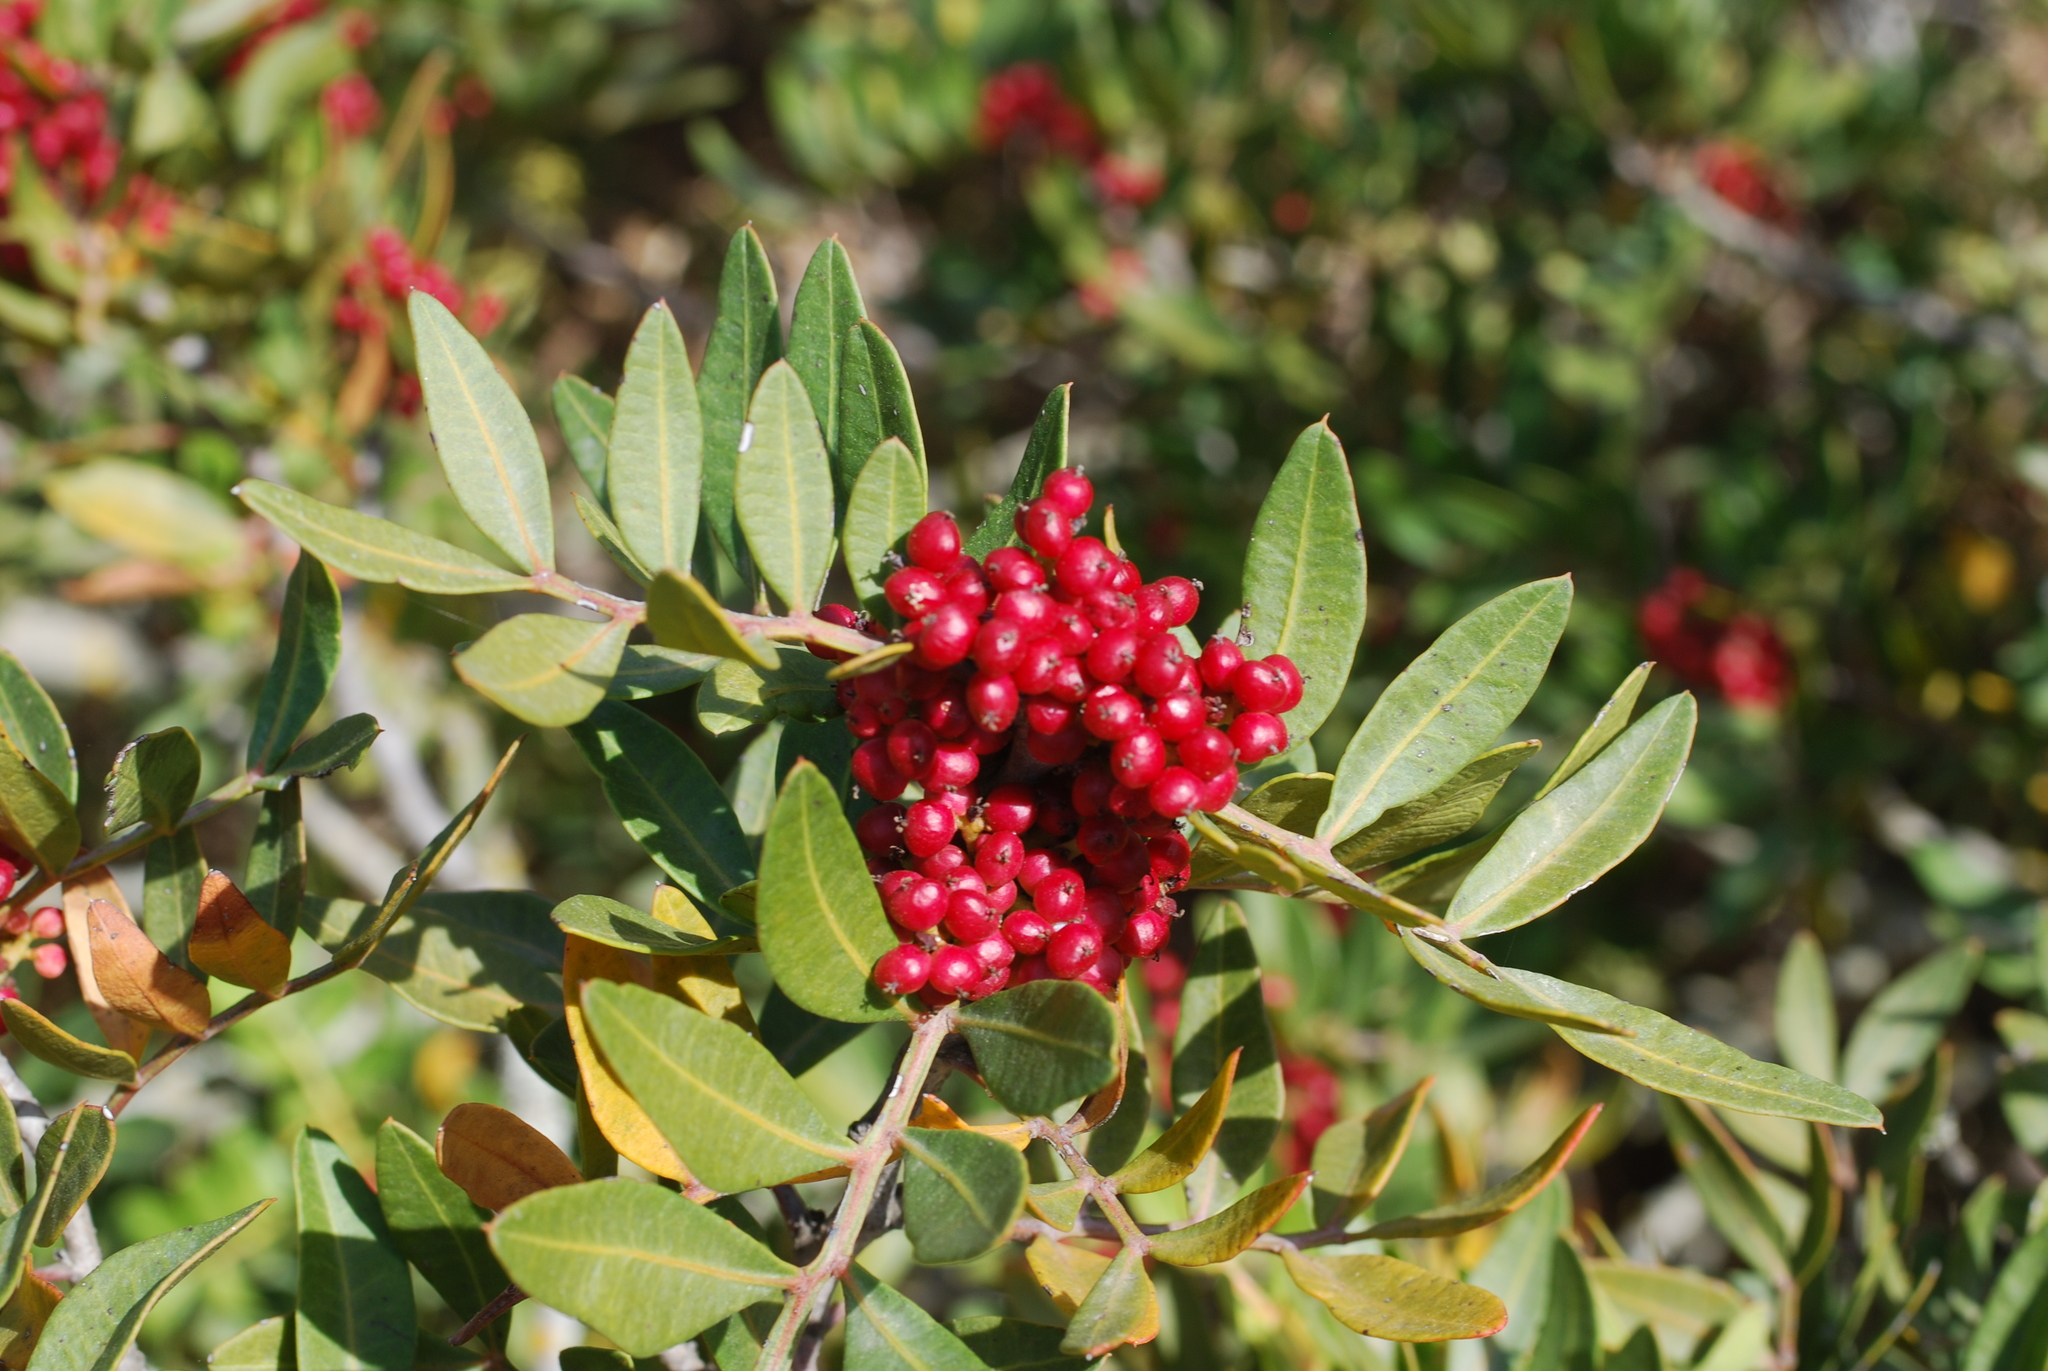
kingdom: Plantae
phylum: Tracheophyta
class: Magnoliopsida
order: Sapindales
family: Anacardiaceae
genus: Pistacia
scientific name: Pistacia lentiscus
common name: Lentisk
